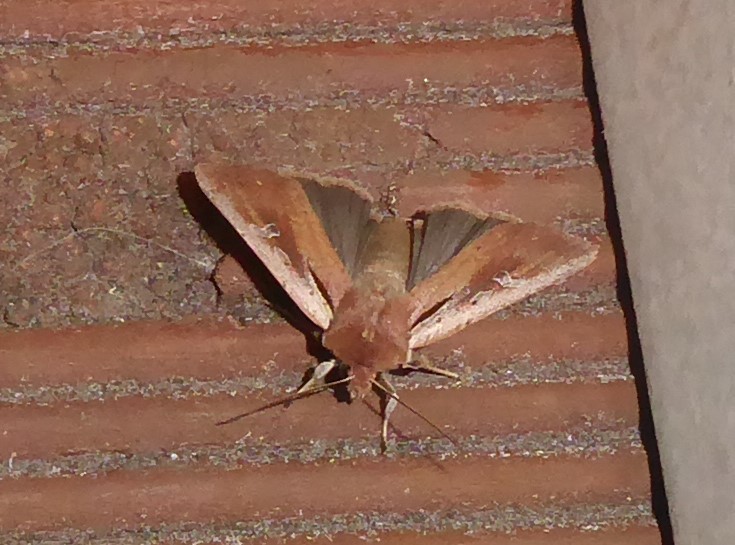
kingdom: Animalia
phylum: Arthropoda
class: Insecta
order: Lepidoptera
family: Noctuidae
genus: Ichneutica
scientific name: Ichneutica atristriga
